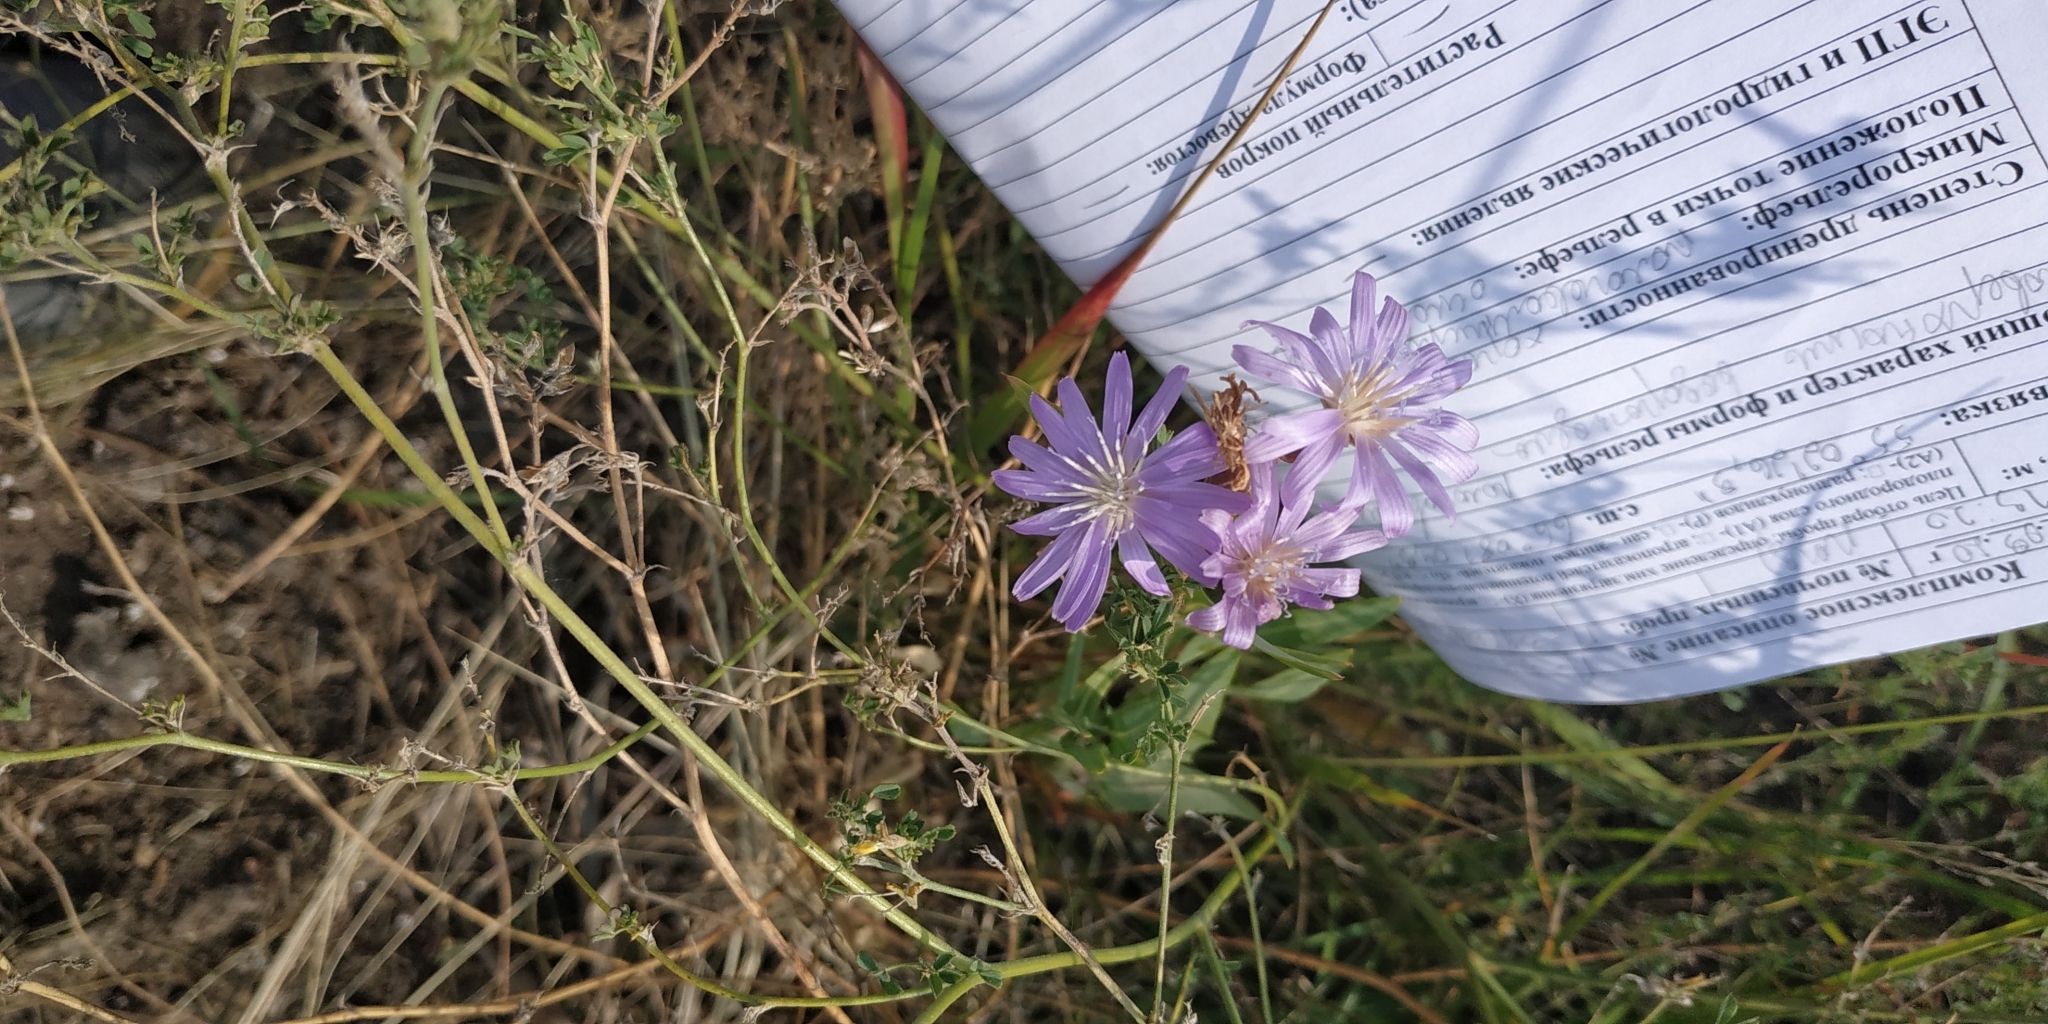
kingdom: Plantae
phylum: Tracheophyta
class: Magnoliopsida
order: Asterales
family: Asteraceae
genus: Lactuca
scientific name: Lactuca tatarica
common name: Blue lettuce
